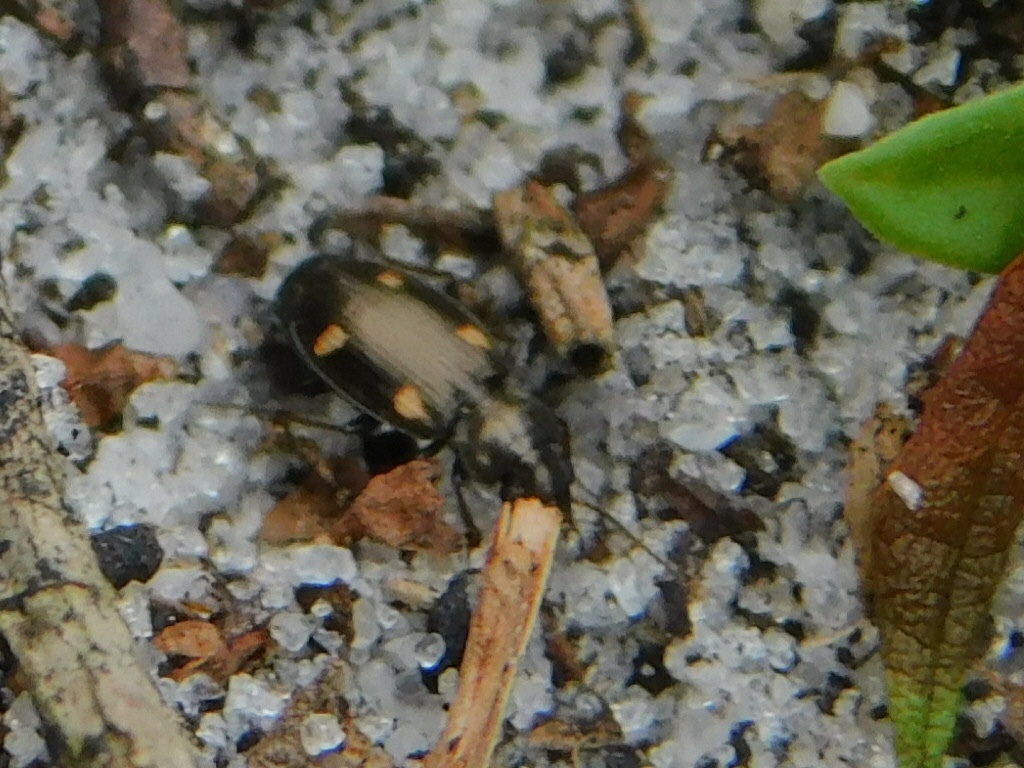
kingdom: Animalia
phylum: Arthropoda
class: Insecta
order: Coleoptera
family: Carabidae
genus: Tetragonoderus
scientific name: Tetragonoderus laevigatus
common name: Ground beetle
